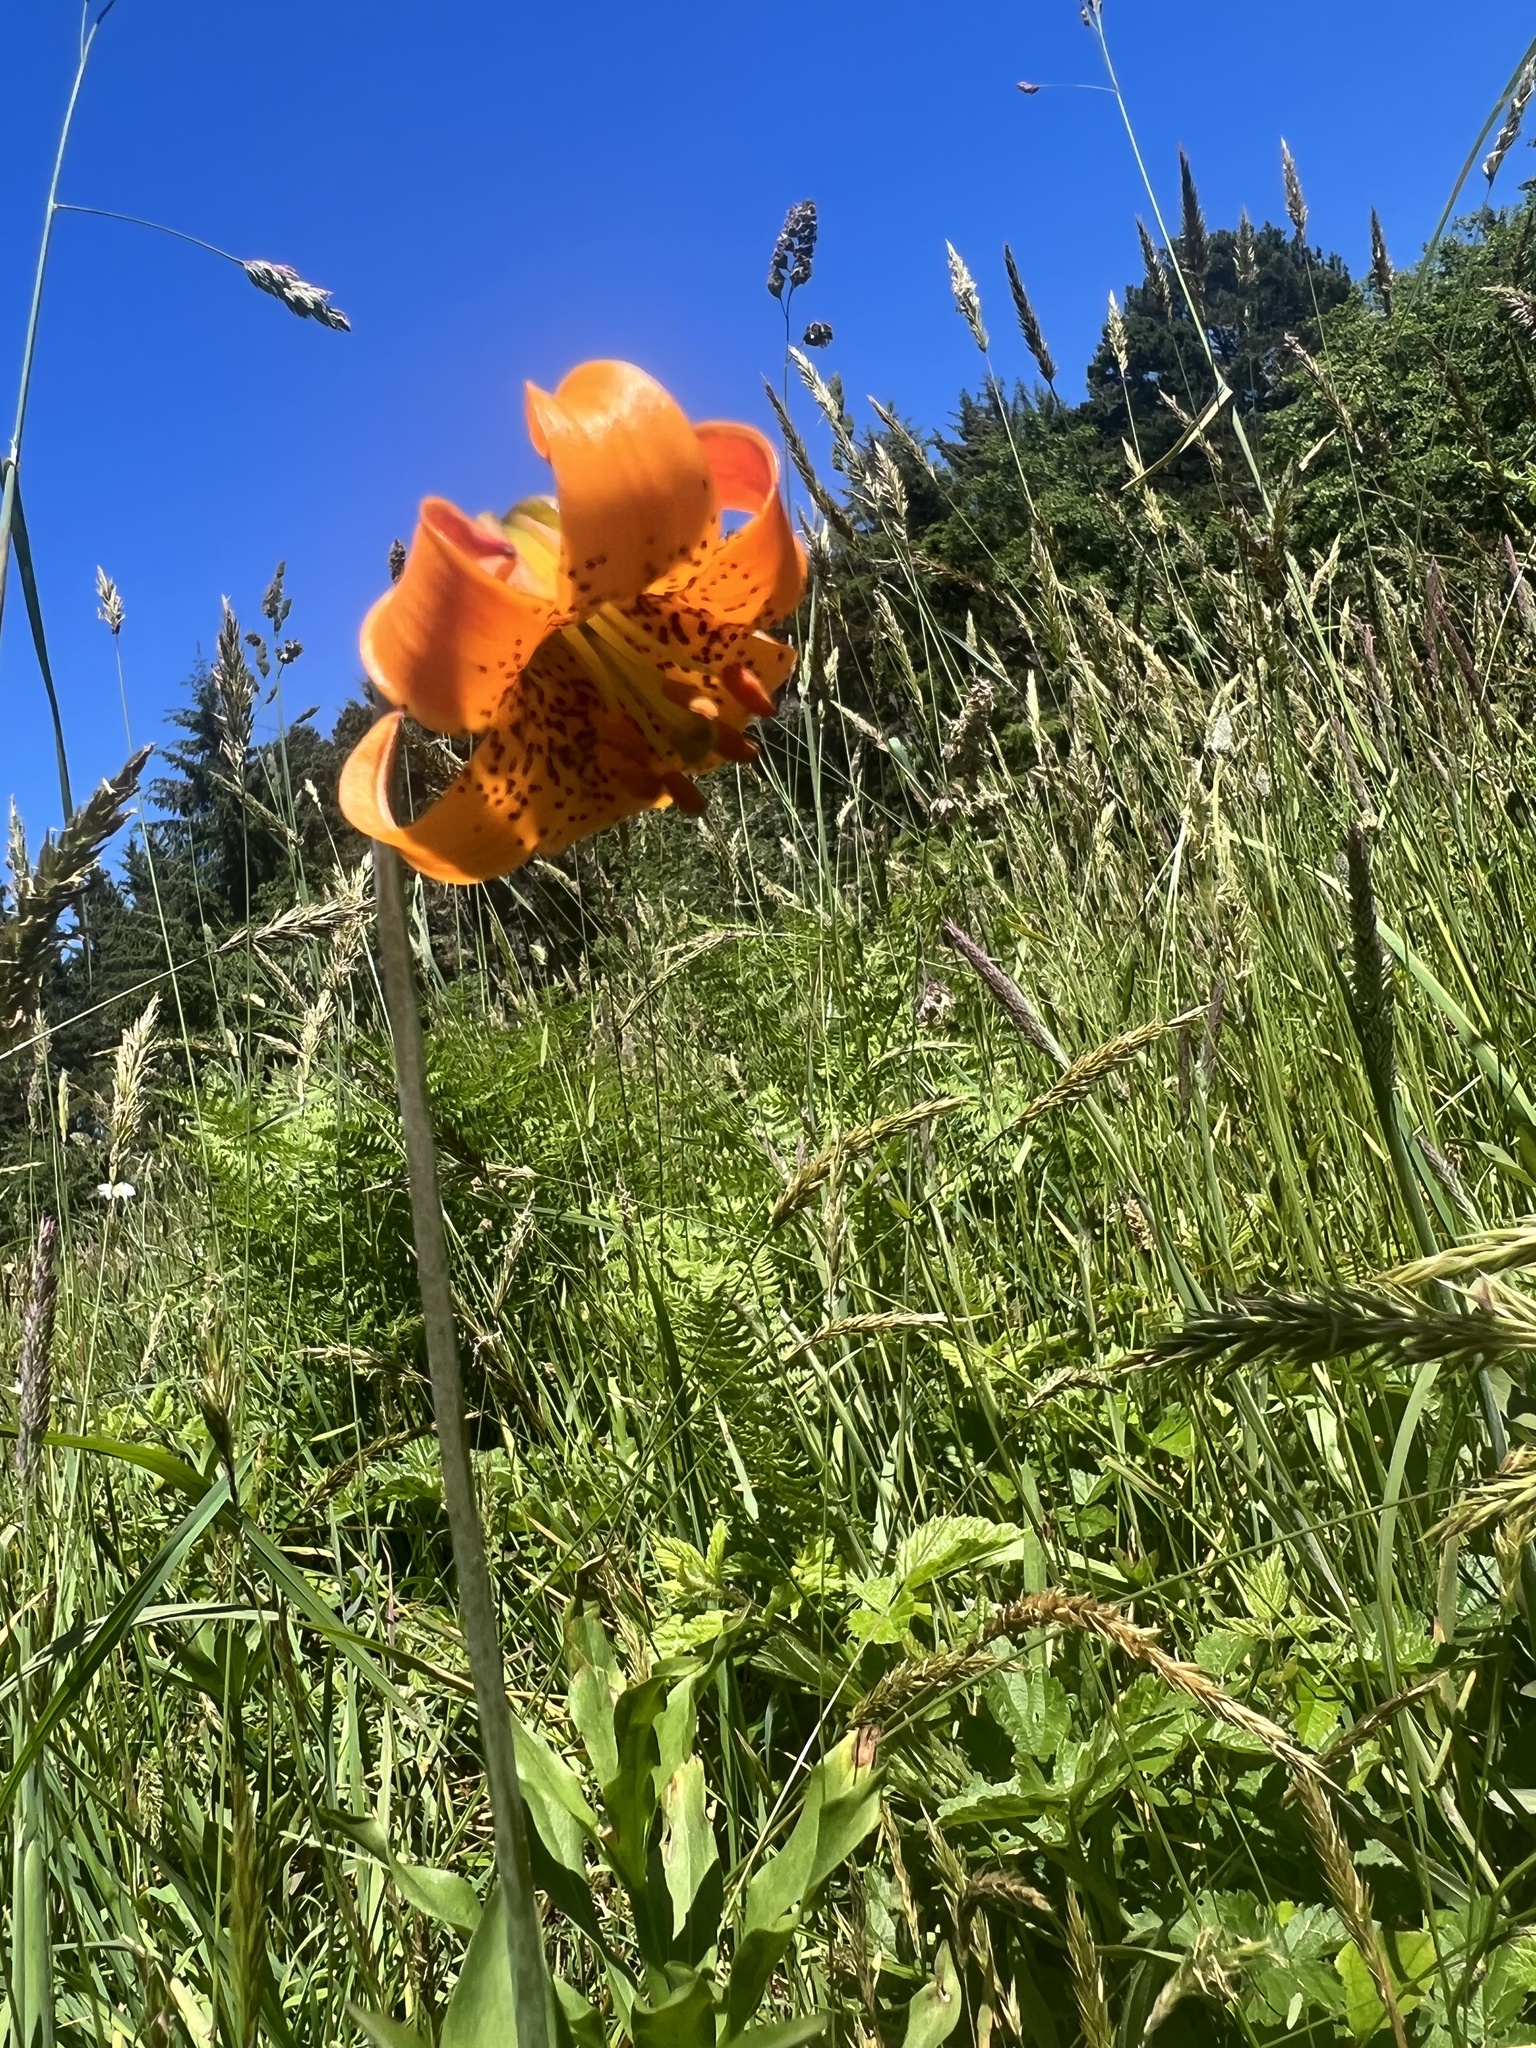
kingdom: Plantae
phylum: Tracheophyta
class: Liliopsida
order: Liliales
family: Liliaceae
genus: Lilium
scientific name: Lilium columbianum
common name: Columbia lily
